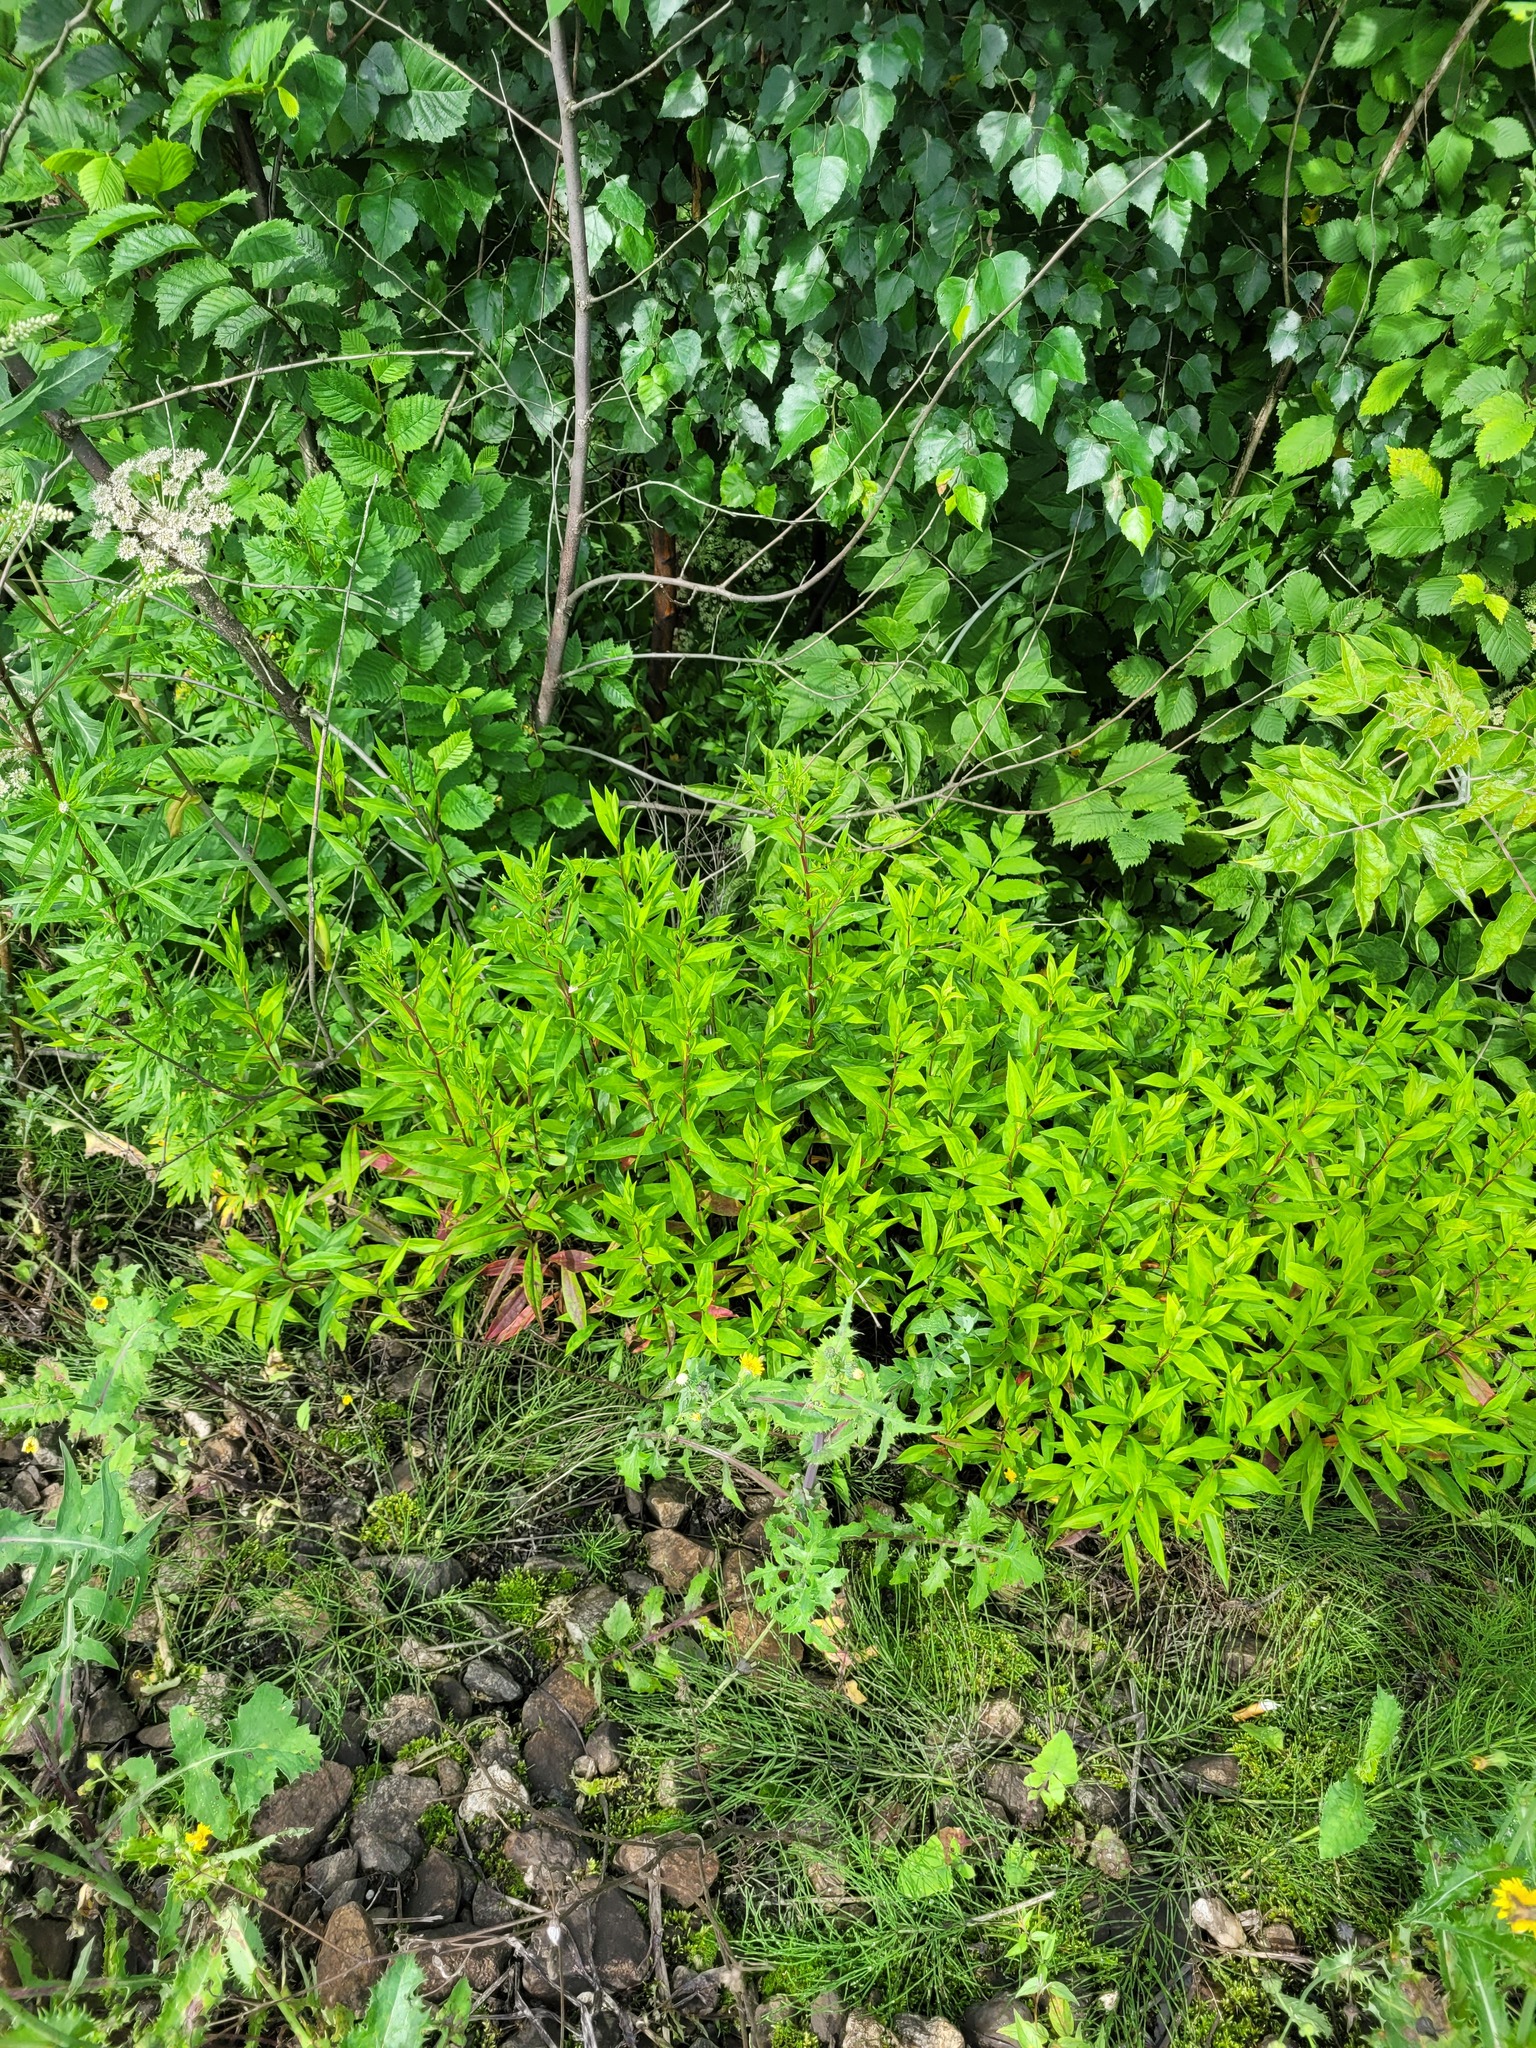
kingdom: Plantae
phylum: Tracheophyta
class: Magnoliopsida
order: Asterales
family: Asteraceae
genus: Symphyotrichum
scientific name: Symphyotrichum novi-belgii
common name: Michaelmas daisy
